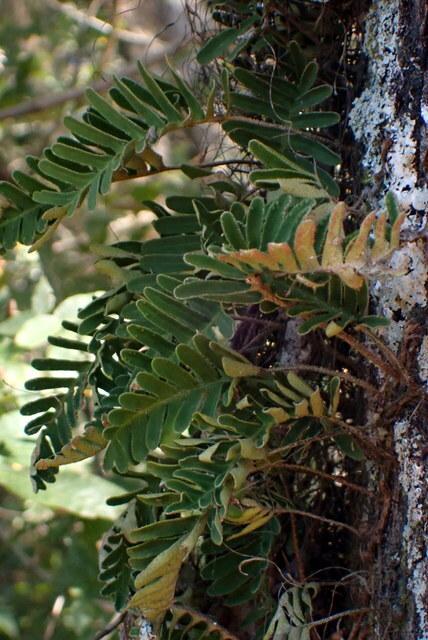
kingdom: Plantae
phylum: Tracheophyta
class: Polypodiopsida
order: Polypodiales
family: Polypodiaceae
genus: Pleopeltis
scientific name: Pleopeltis michauxiana
